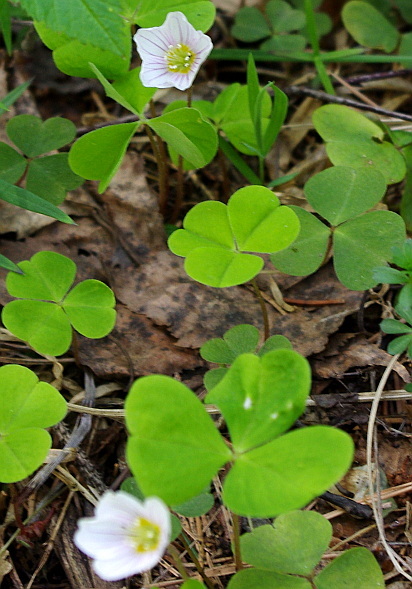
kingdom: Plantae
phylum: Tracheophyta
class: Magnoliopsida
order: Oxalidales
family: Oxalidaceae
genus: Oxalis
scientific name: Oxalis acetosella
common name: Wood-sorrel
